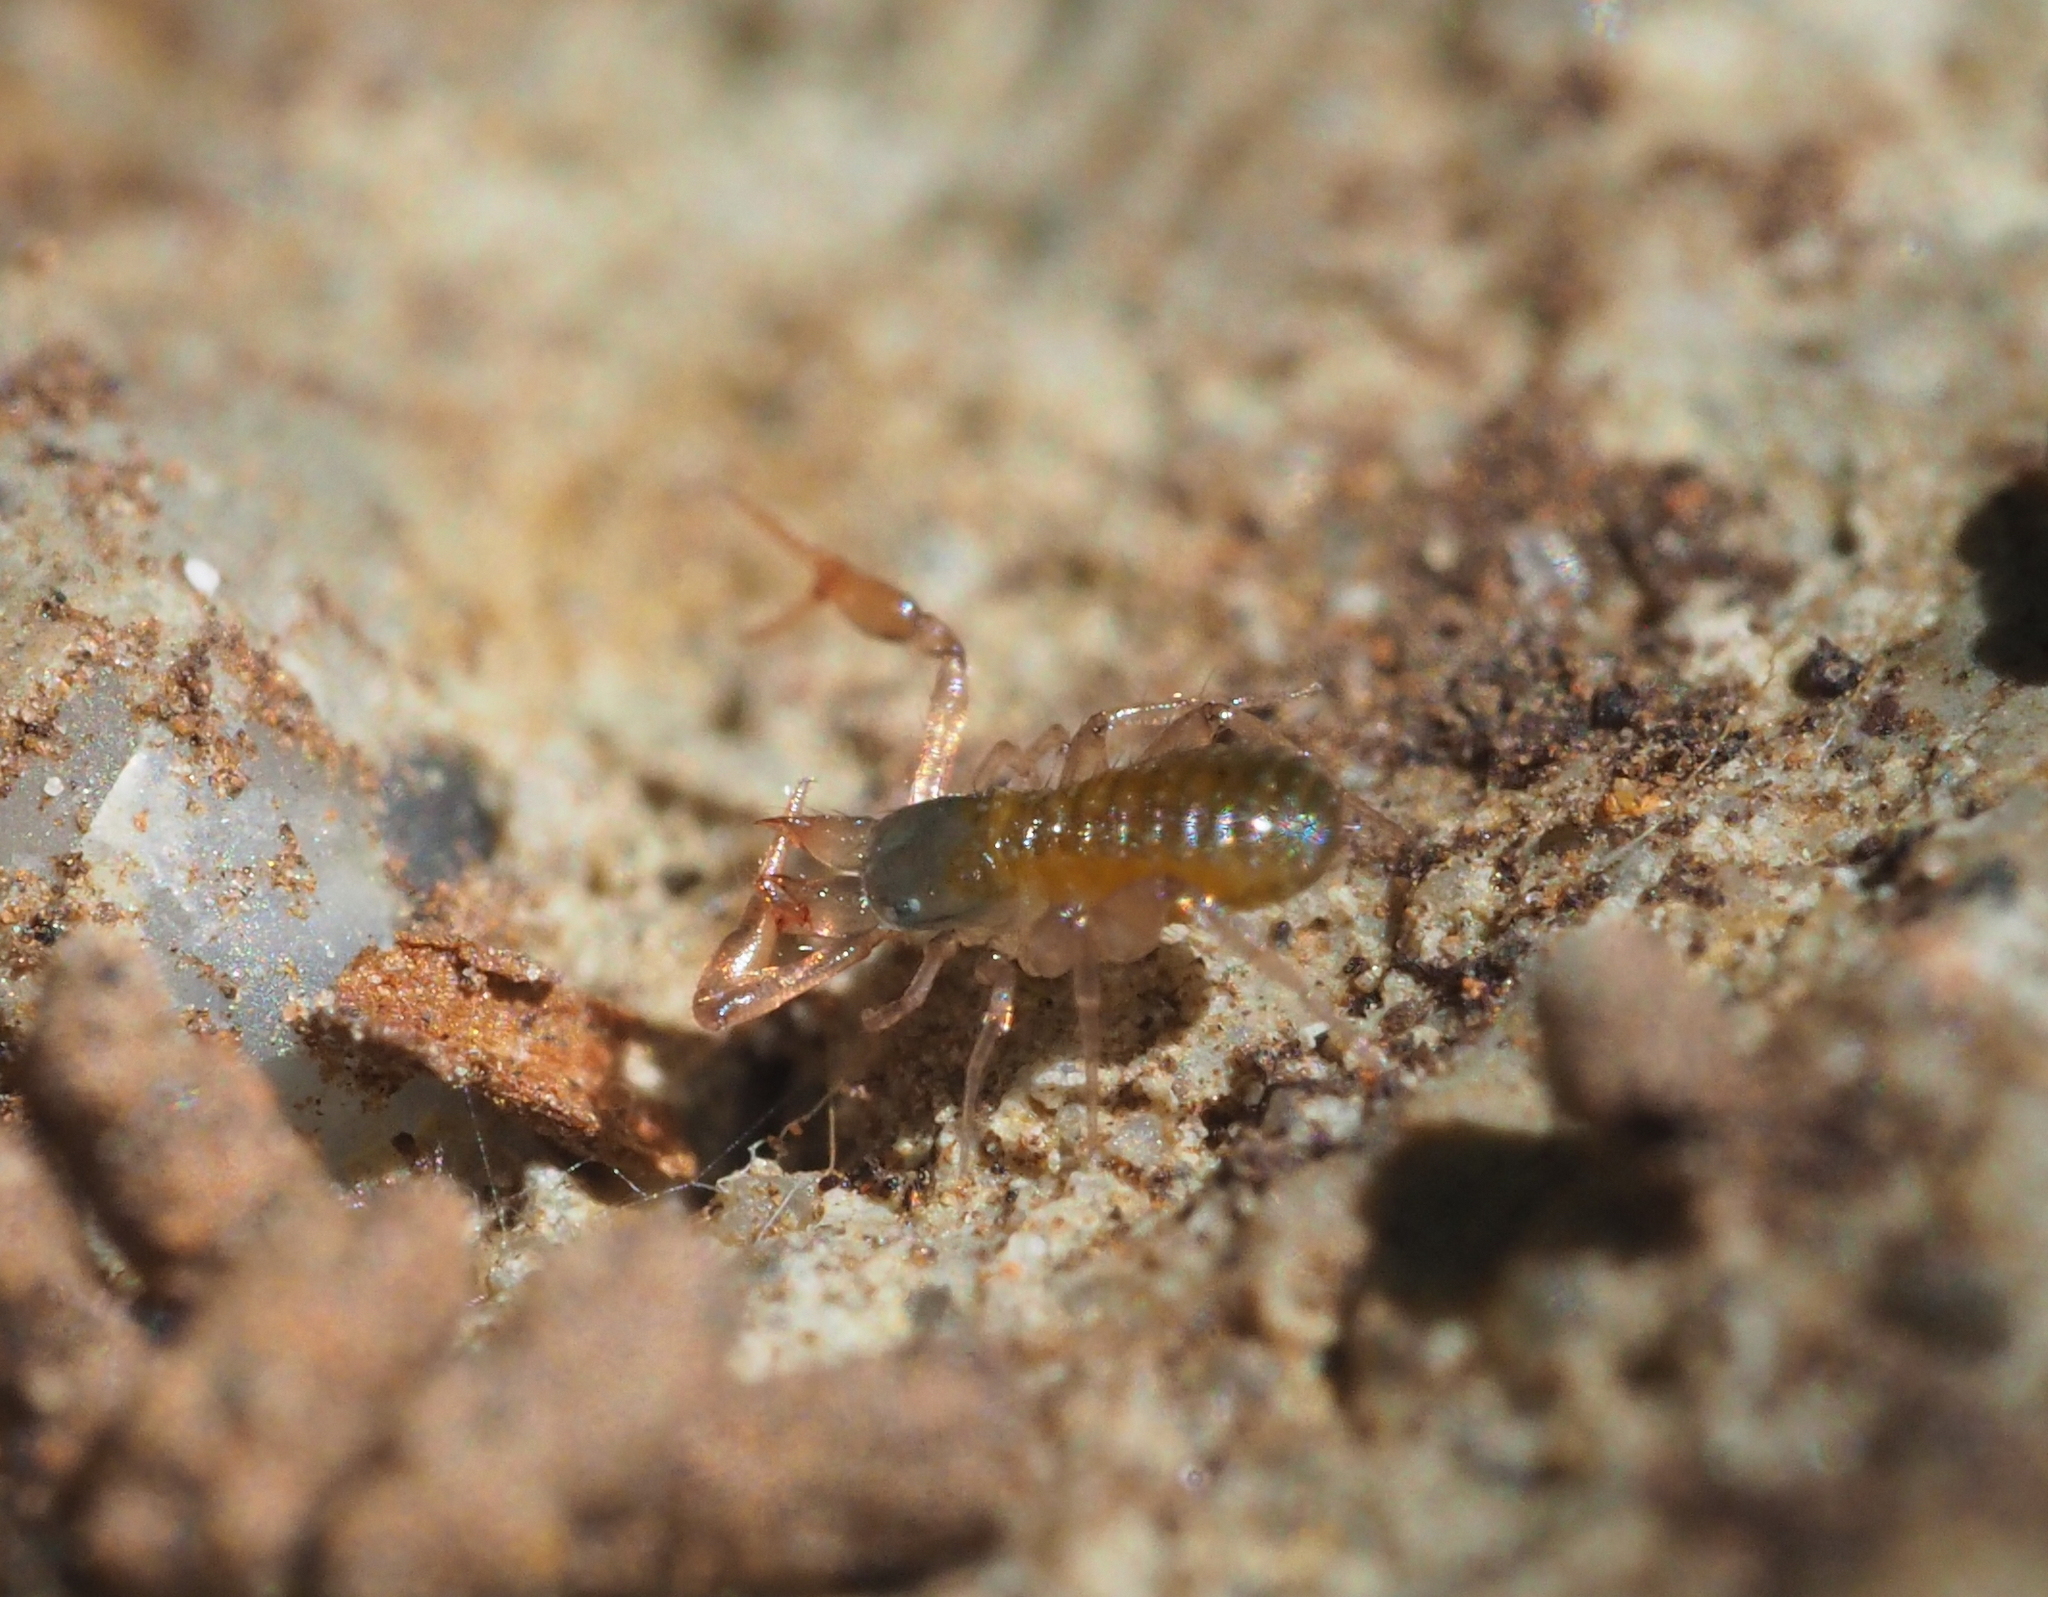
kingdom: Animalia
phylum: Arthropoda
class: Arachnida
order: Pseudoscorpiones
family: Chthoniidae
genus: Ephippiochthonius
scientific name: Ephippiochthonius tetrachelatus
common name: Pseudoscorpion
